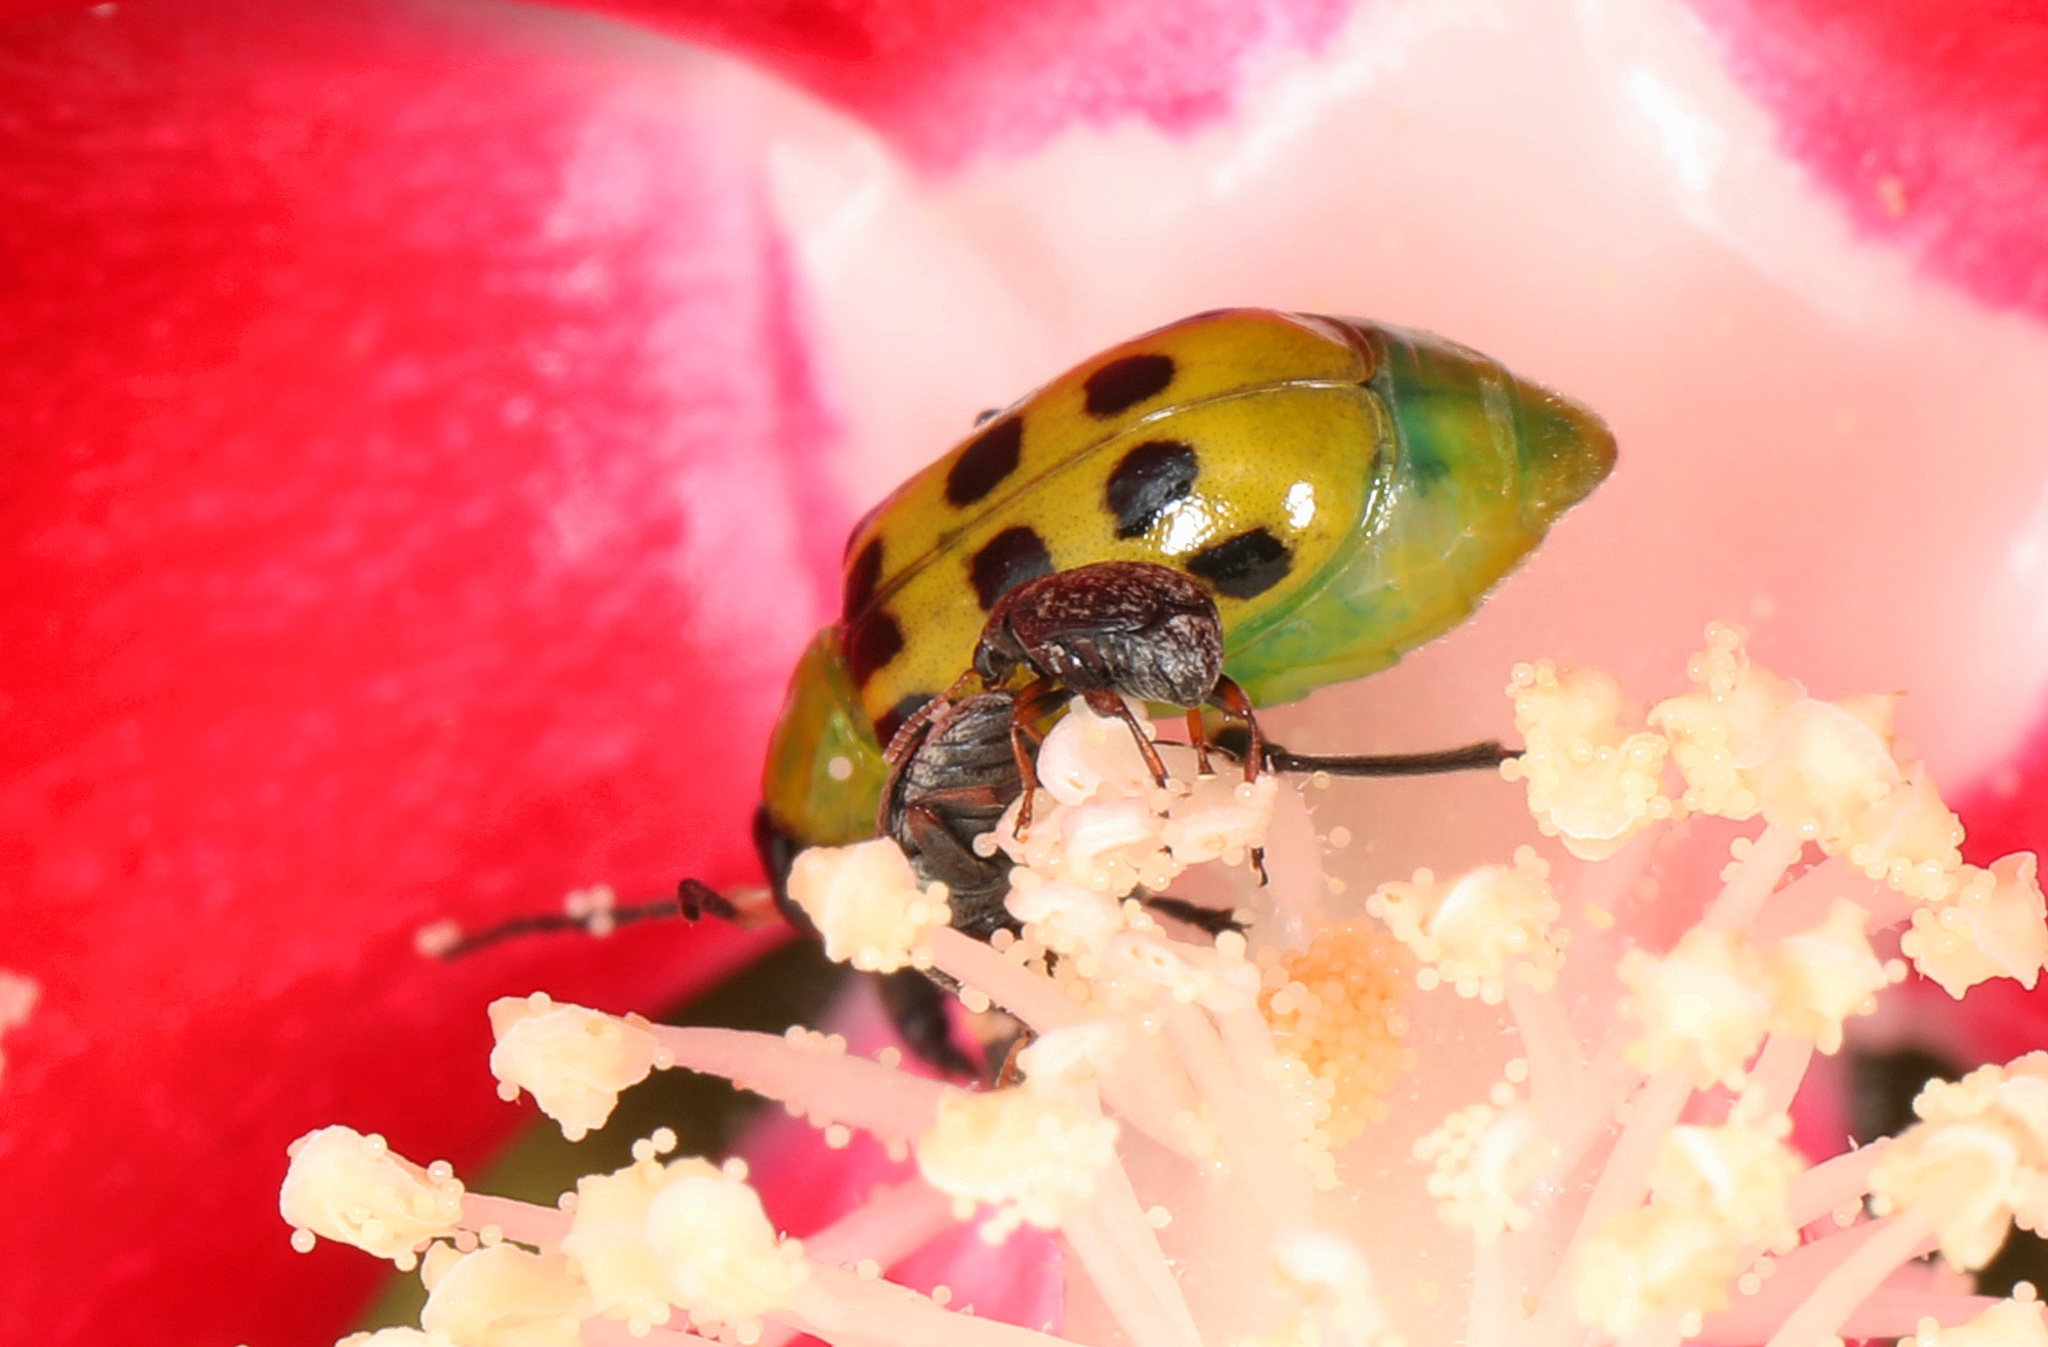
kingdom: Animalia
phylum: Arthropoda
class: Insecta
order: Coleoptera
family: Chrysomelidae
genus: Diabrotica
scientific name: Diabrotica undecimpunctata
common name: Spotted cucumber beetle
